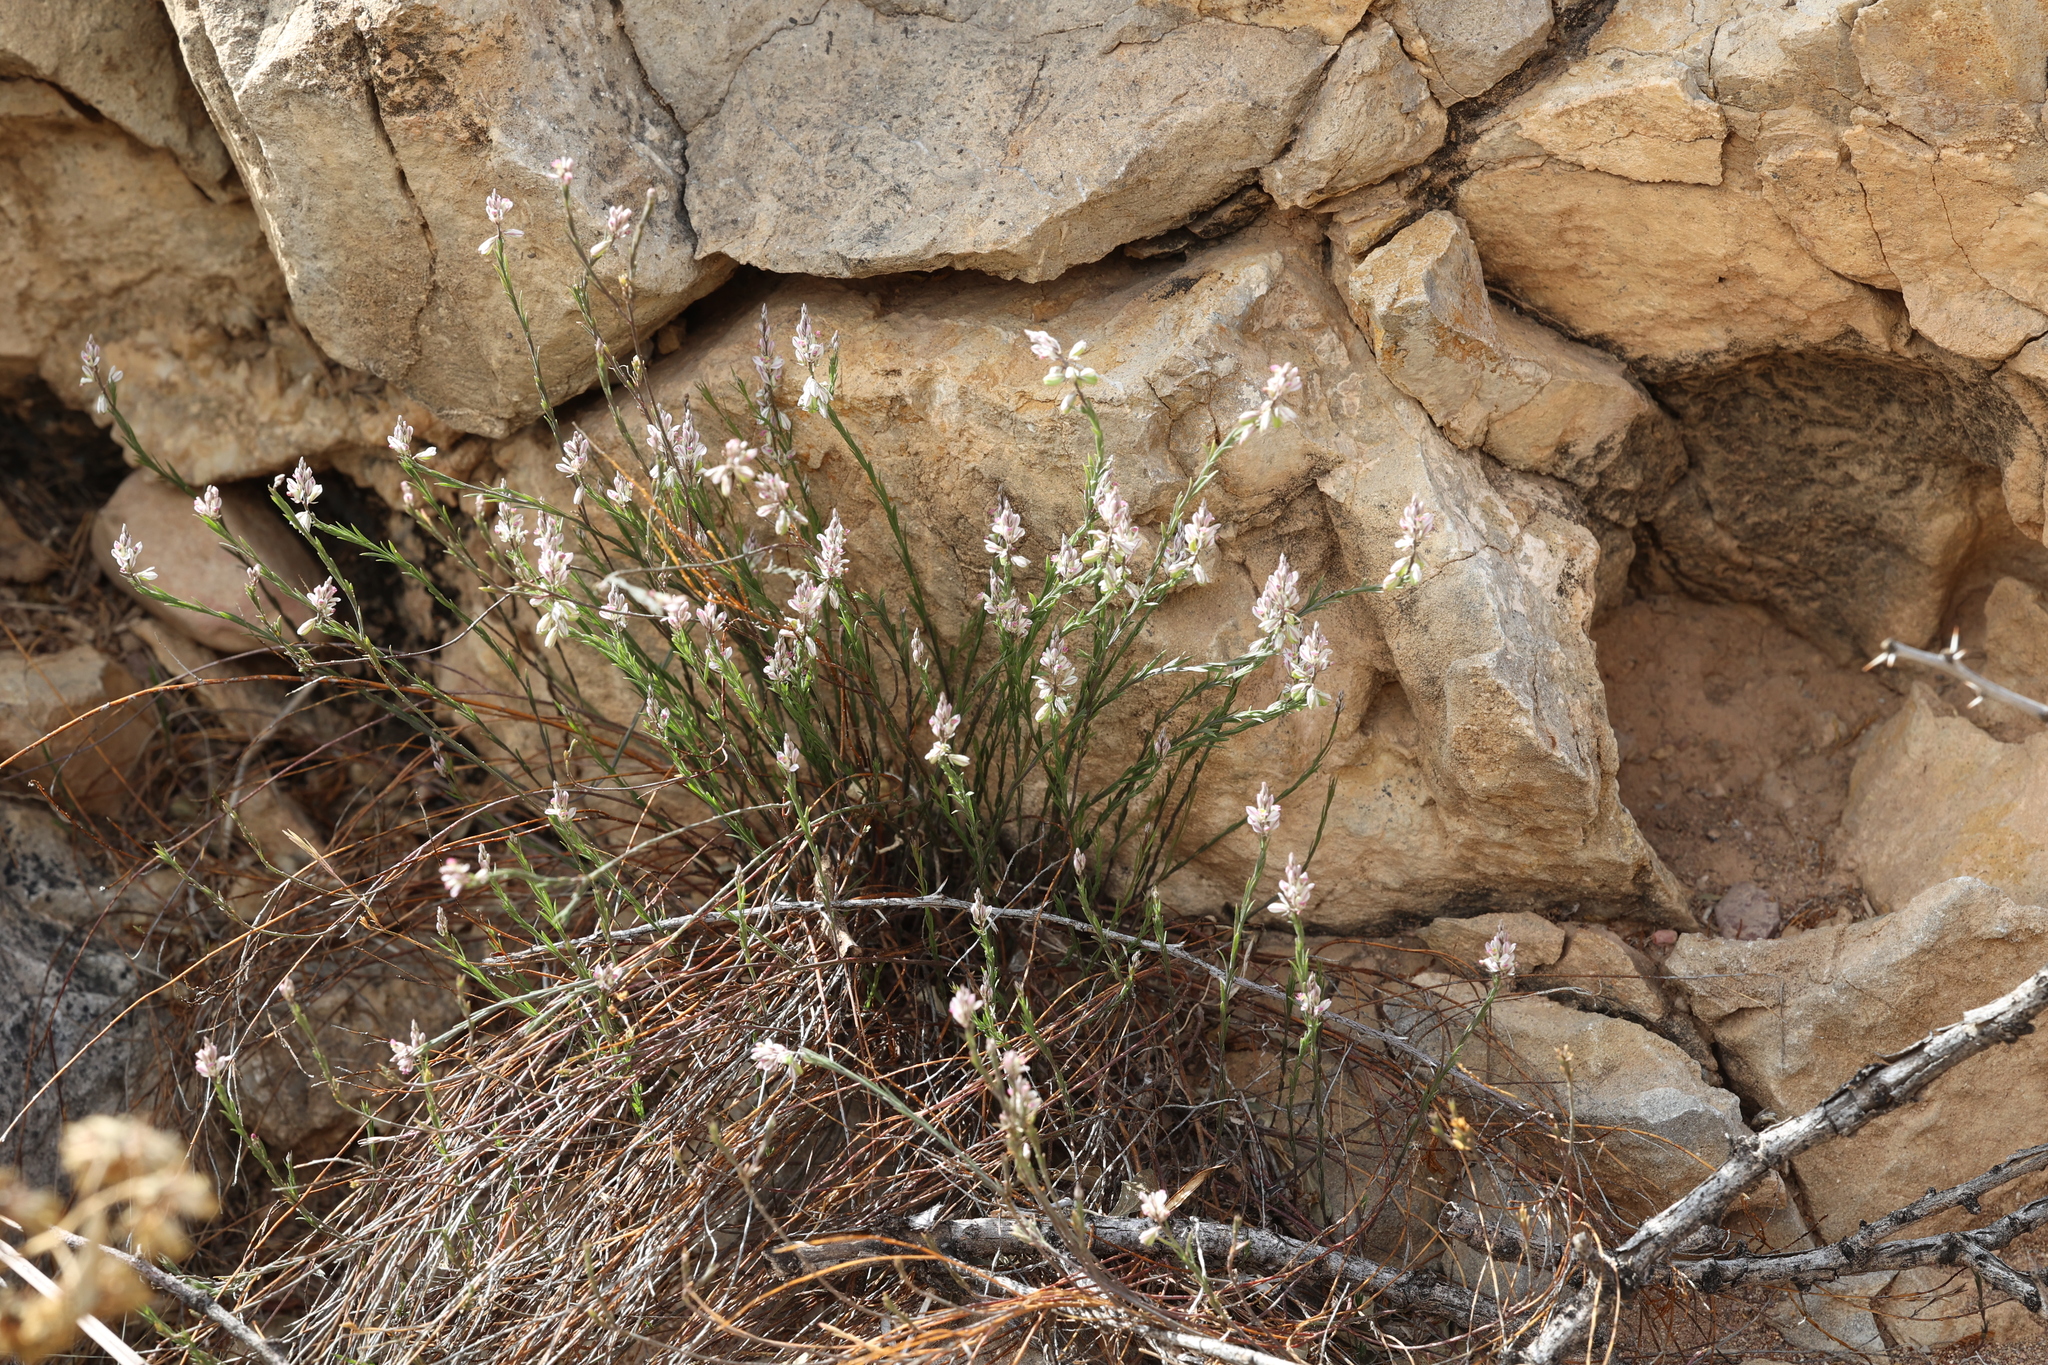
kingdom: Plantae
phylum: Tracheophyta
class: Magnoliopsida
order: Fabales
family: Polygalaceae
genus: Polygala
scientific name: Polygala scoparioides
